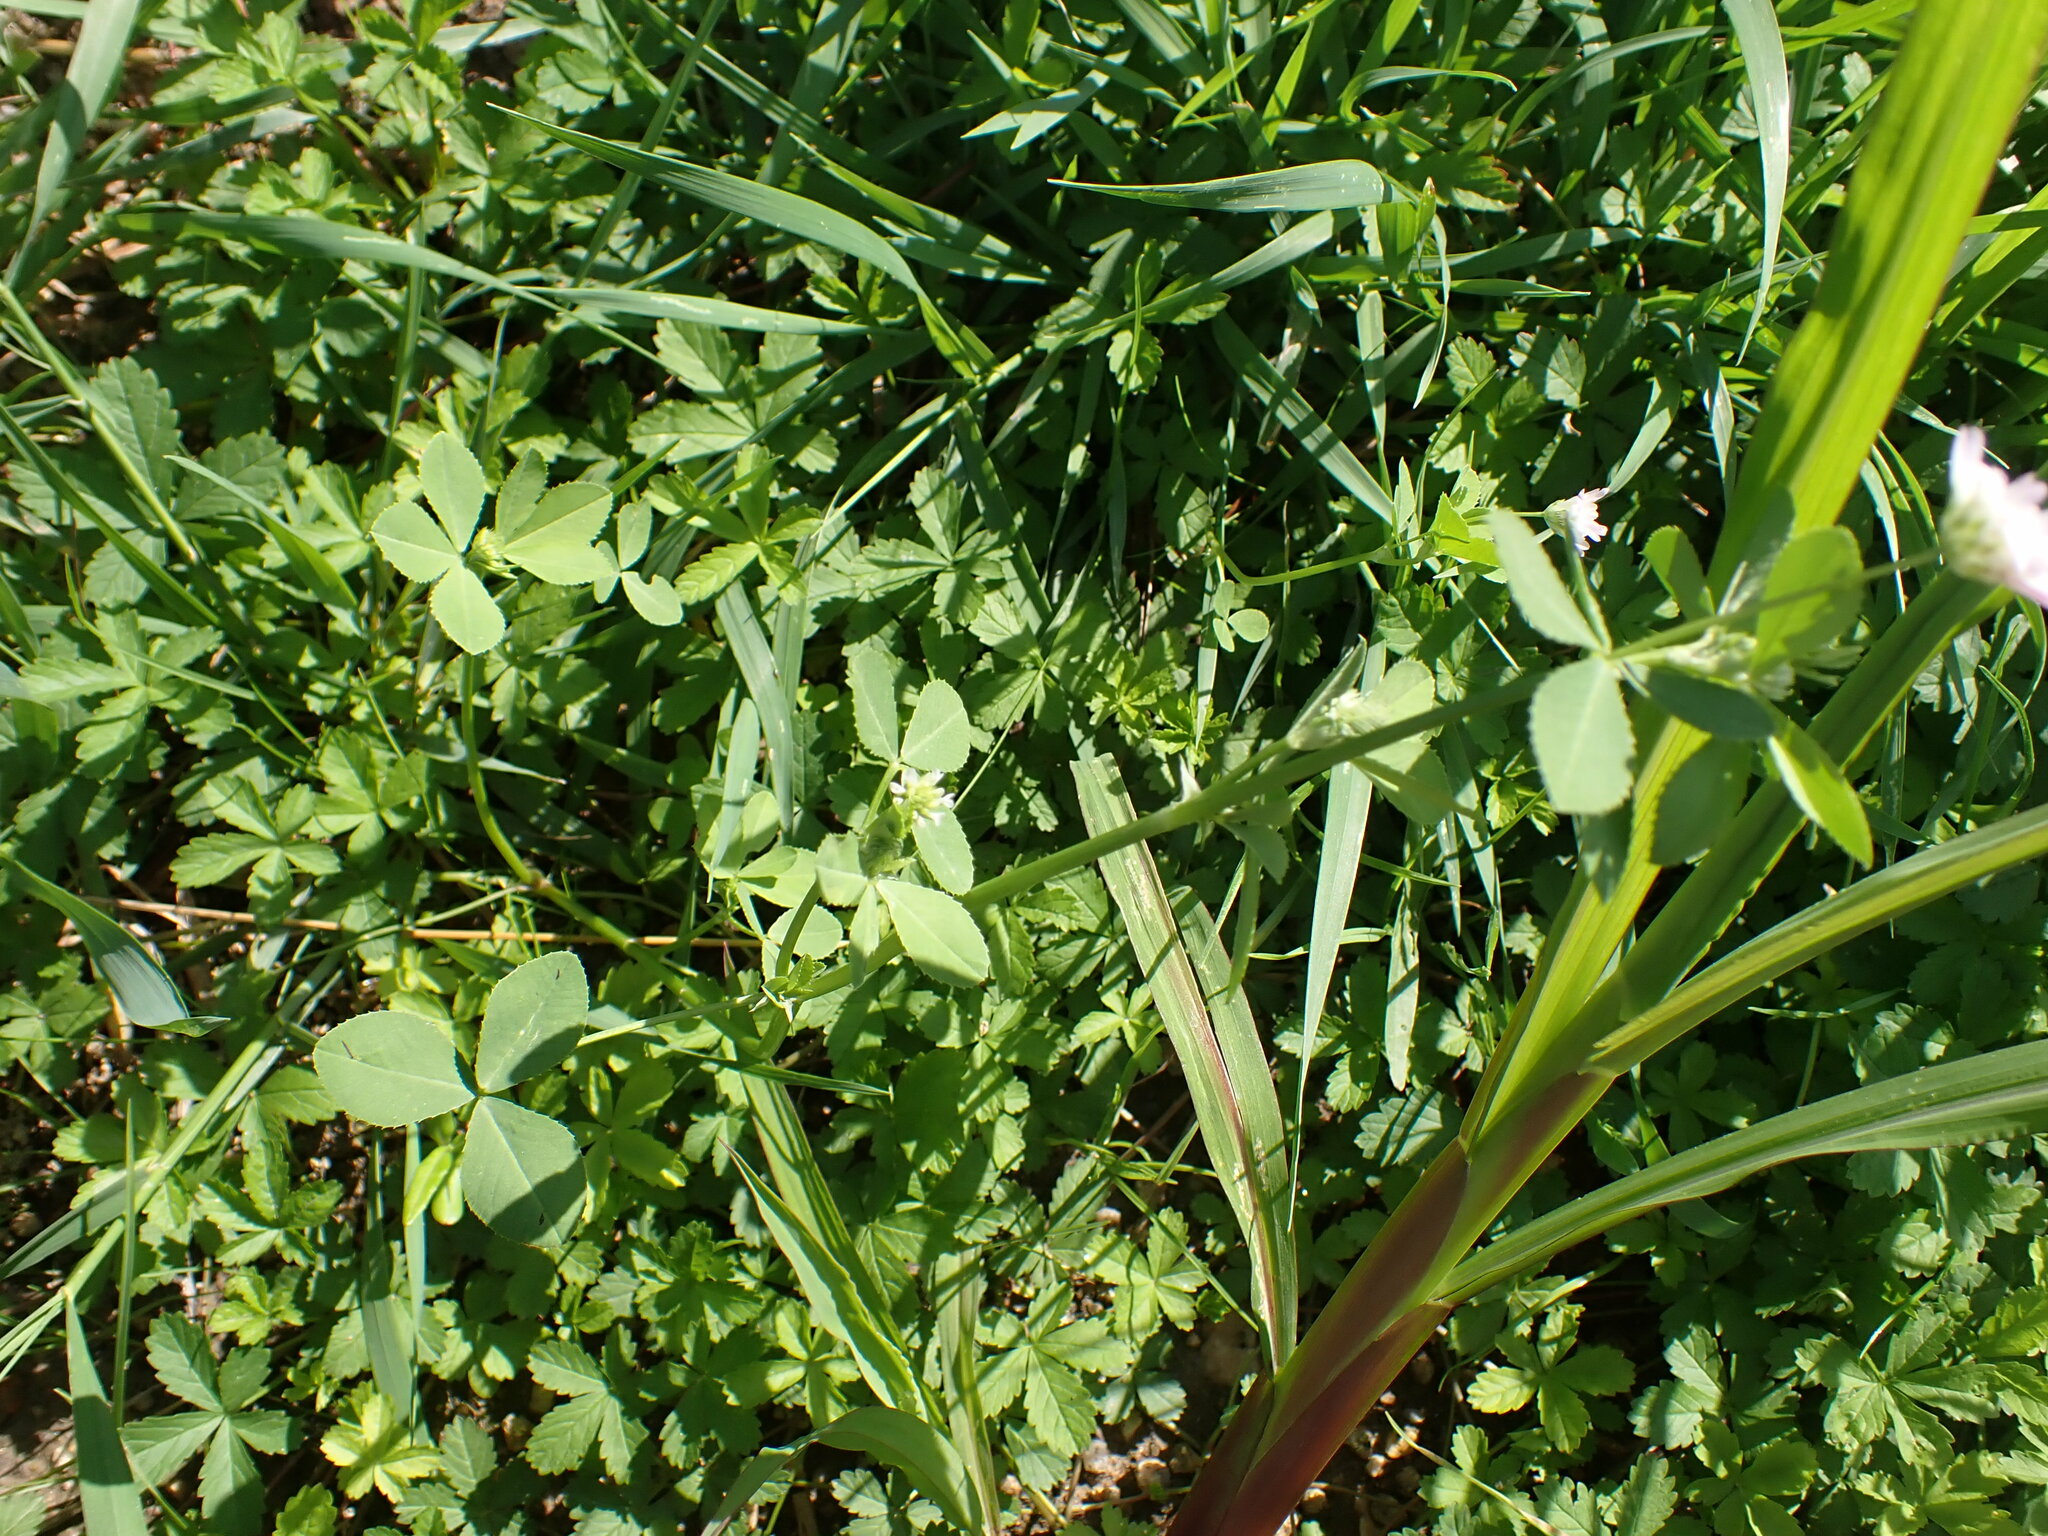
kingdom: Plantae
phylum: Tracheophyta
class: Magnoliopsida
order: Fabales
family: Fabaceae
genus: Trifolium
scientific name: Trifolium resupinatum
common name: Reversed clover
